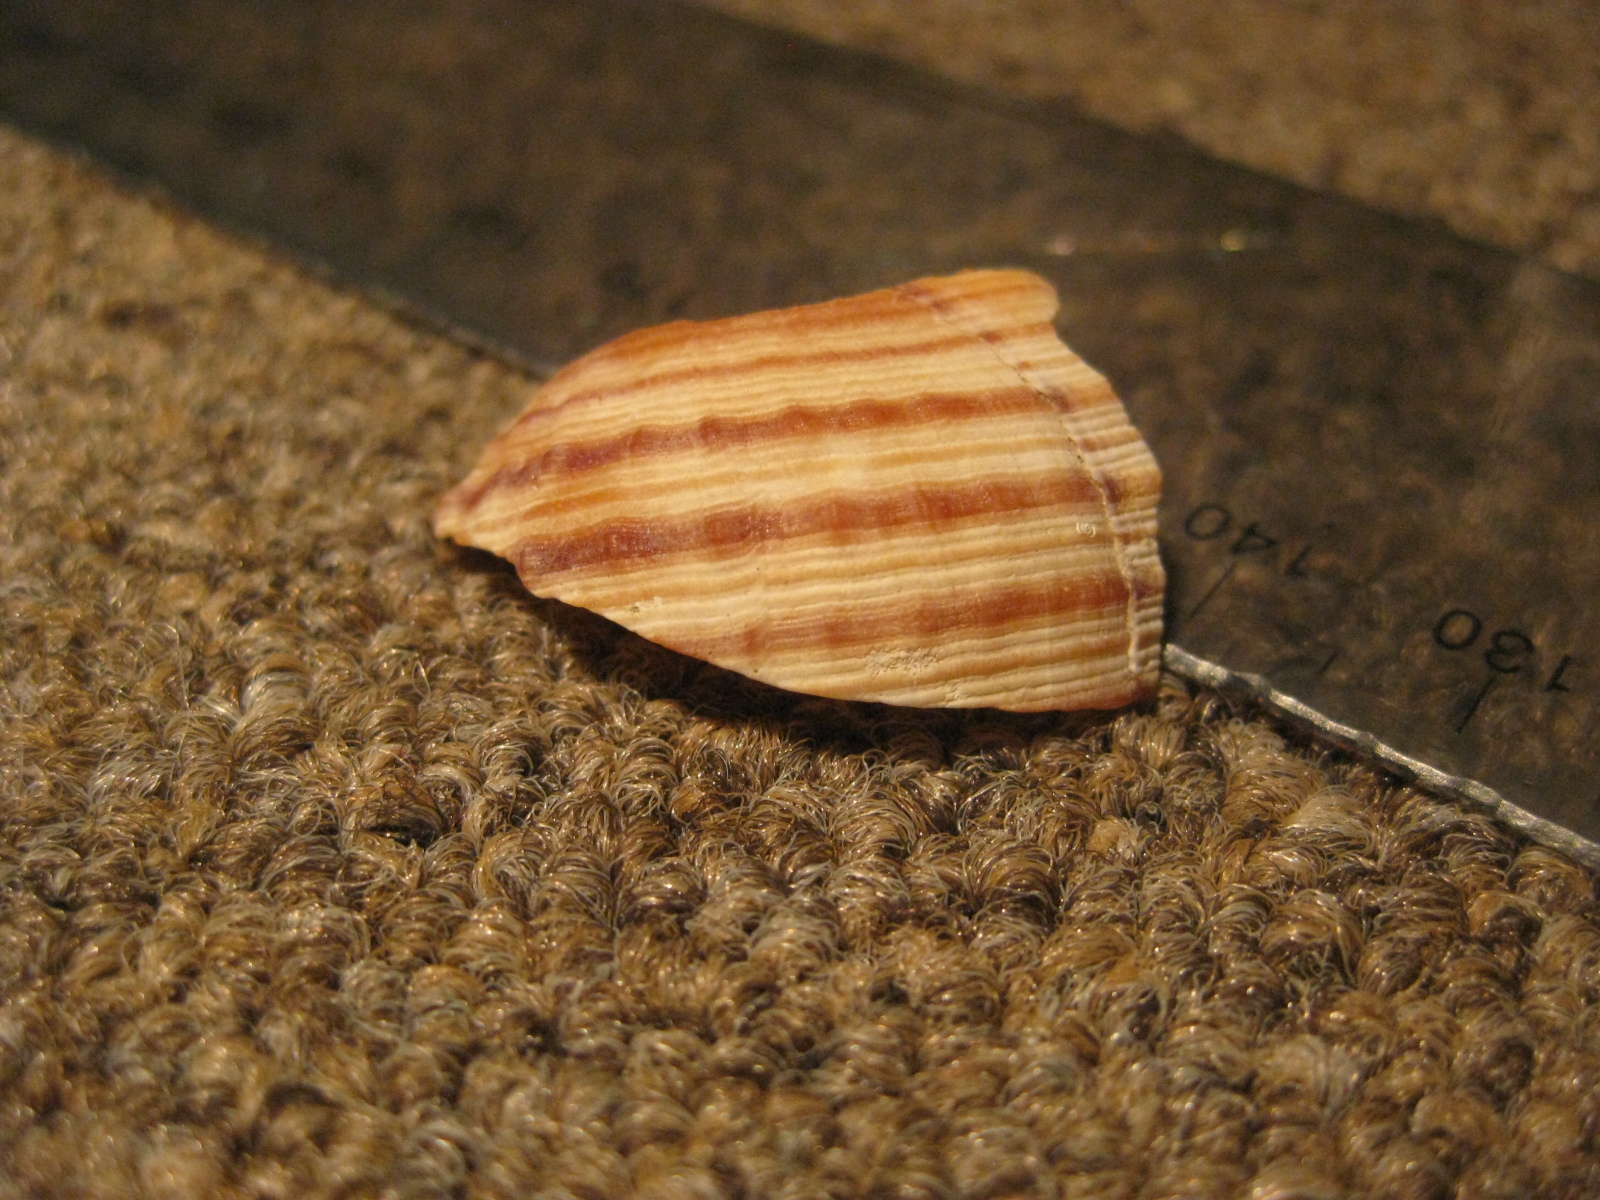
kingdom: Animalia
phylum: Mollusca
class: Gastropoda
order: Littorinimorpha
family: Cymatiidae
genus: Argobuccinum
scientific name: Argobuccinum pustulosum
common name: Pustular triton
